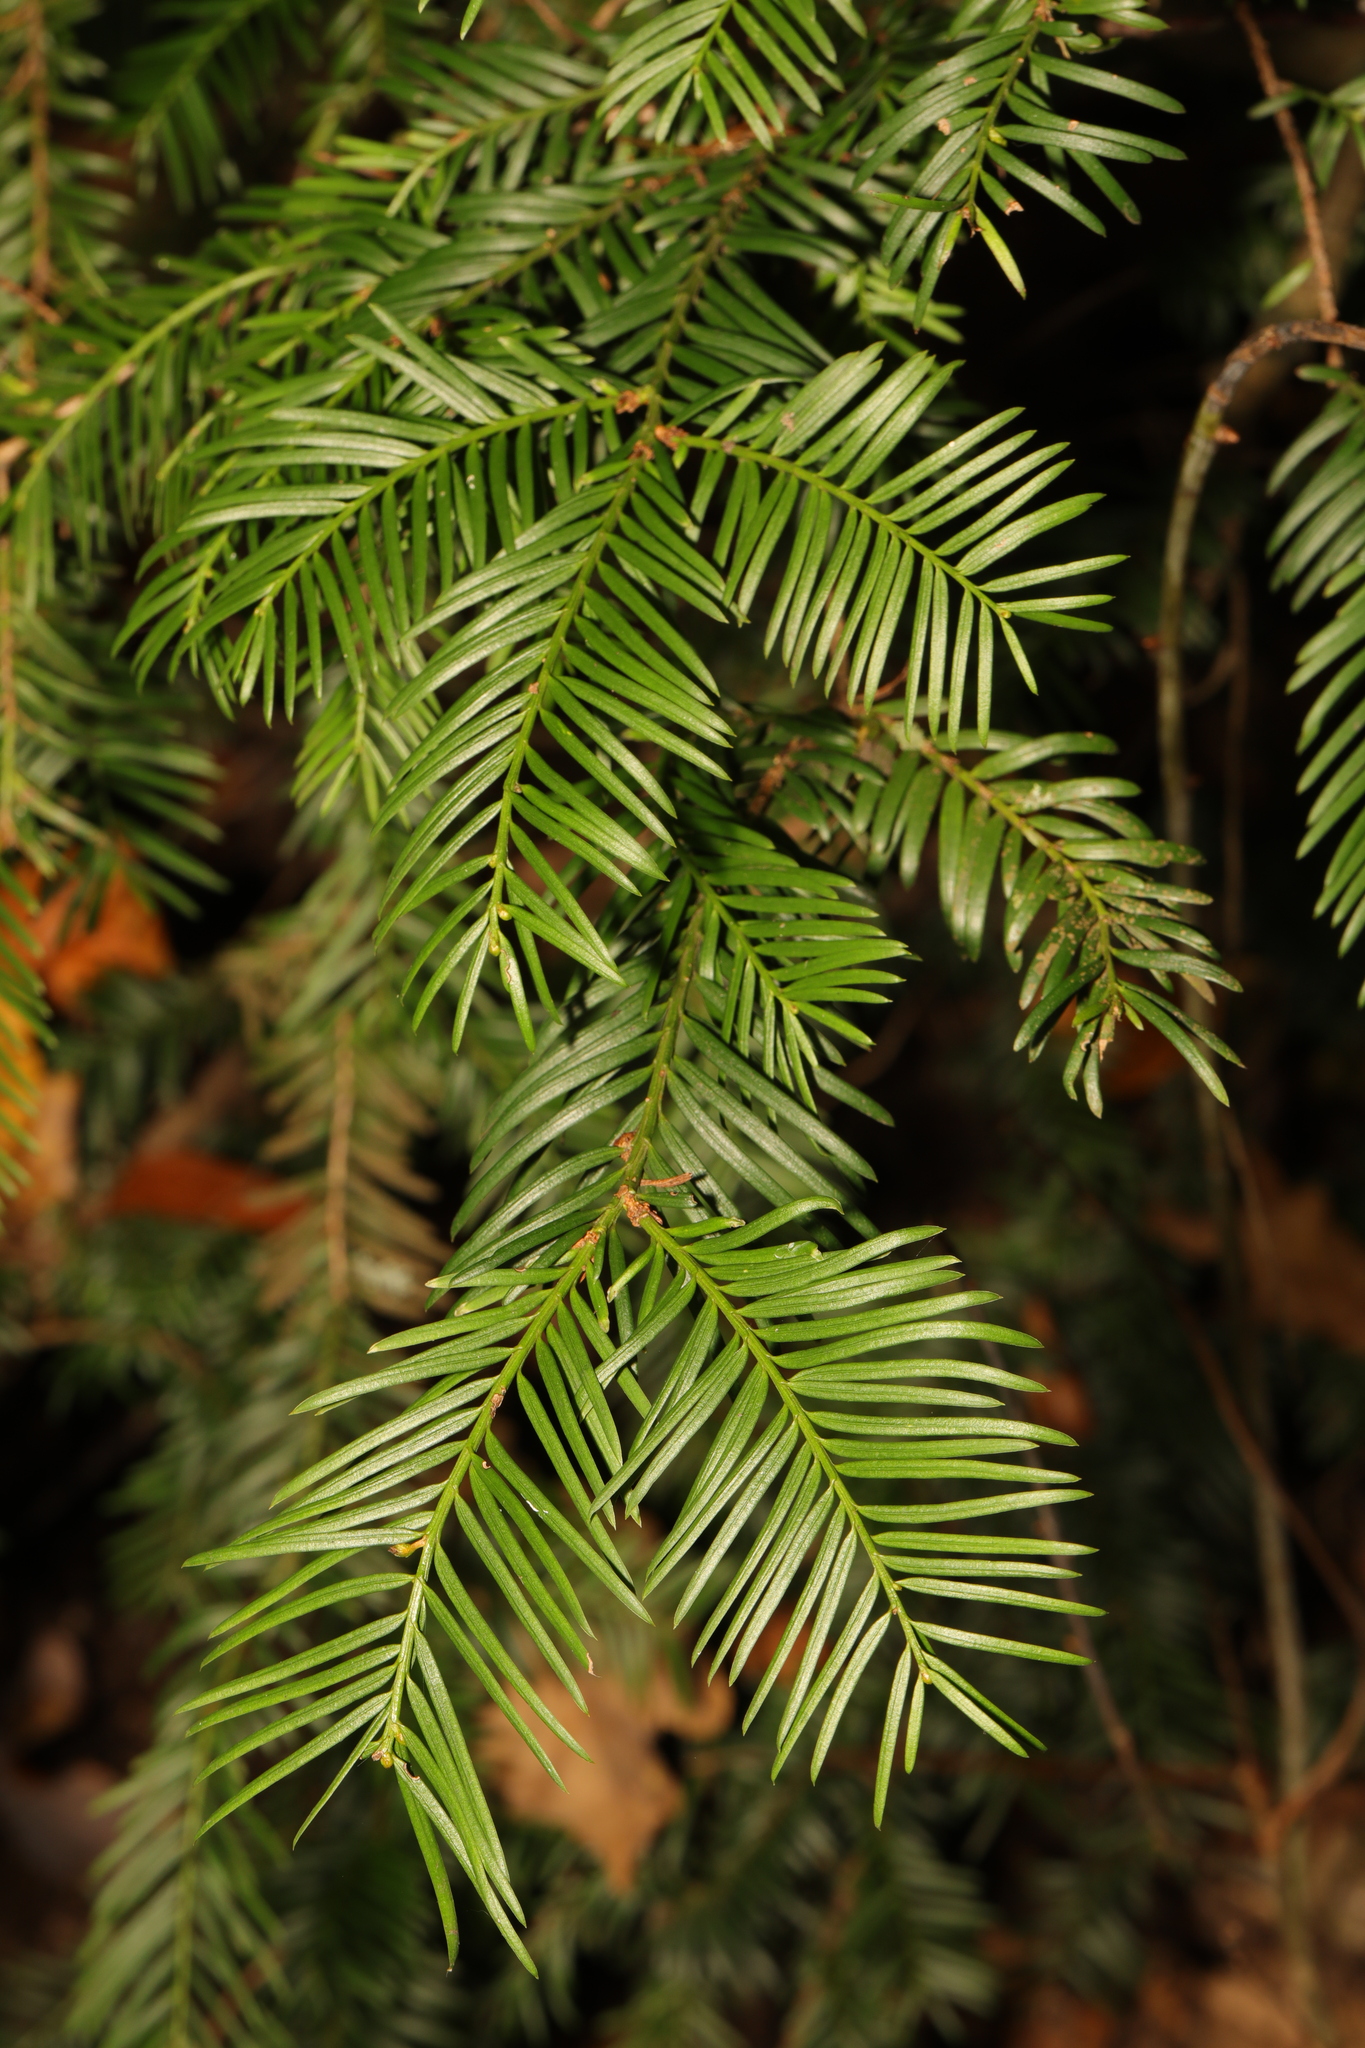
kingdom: Plantae
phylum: Tracheophyta
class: Pinopsida
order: Pinales
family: Taxaceae
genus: Taxus
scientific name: Taxus baccata
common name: Yew
